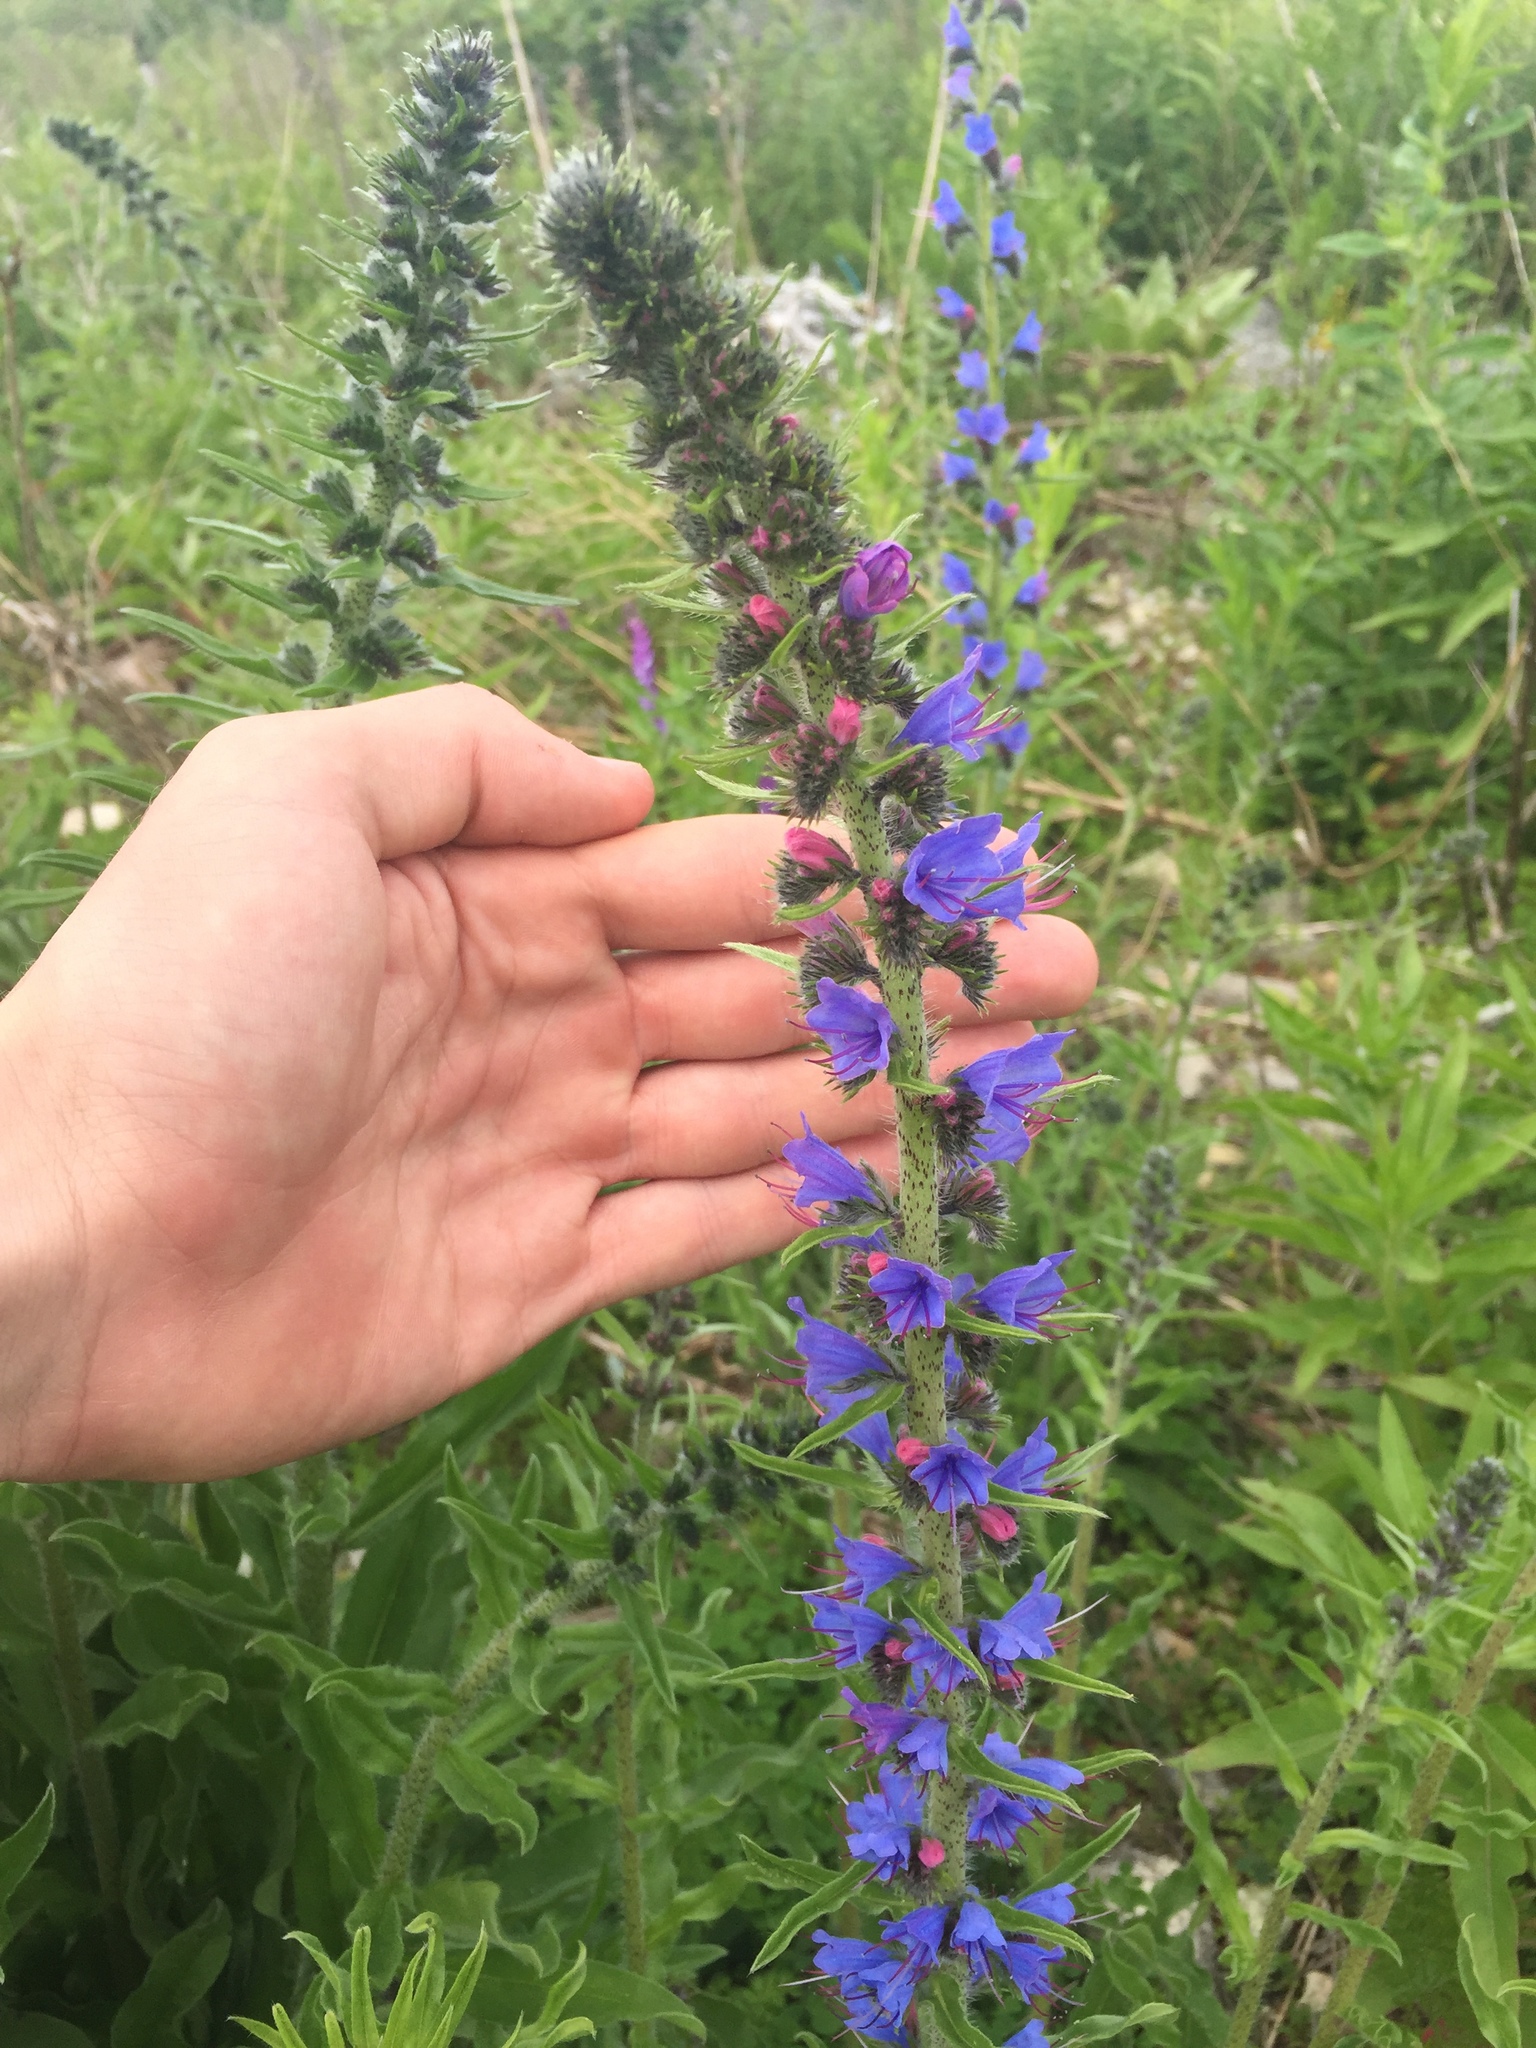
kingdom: Plantae
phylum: Tracheophyta
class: Magnoliopsida
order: Boraginales
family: Boraginaceae
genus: Echium
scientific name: Echium vulgare
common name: Common viper's bugloss
